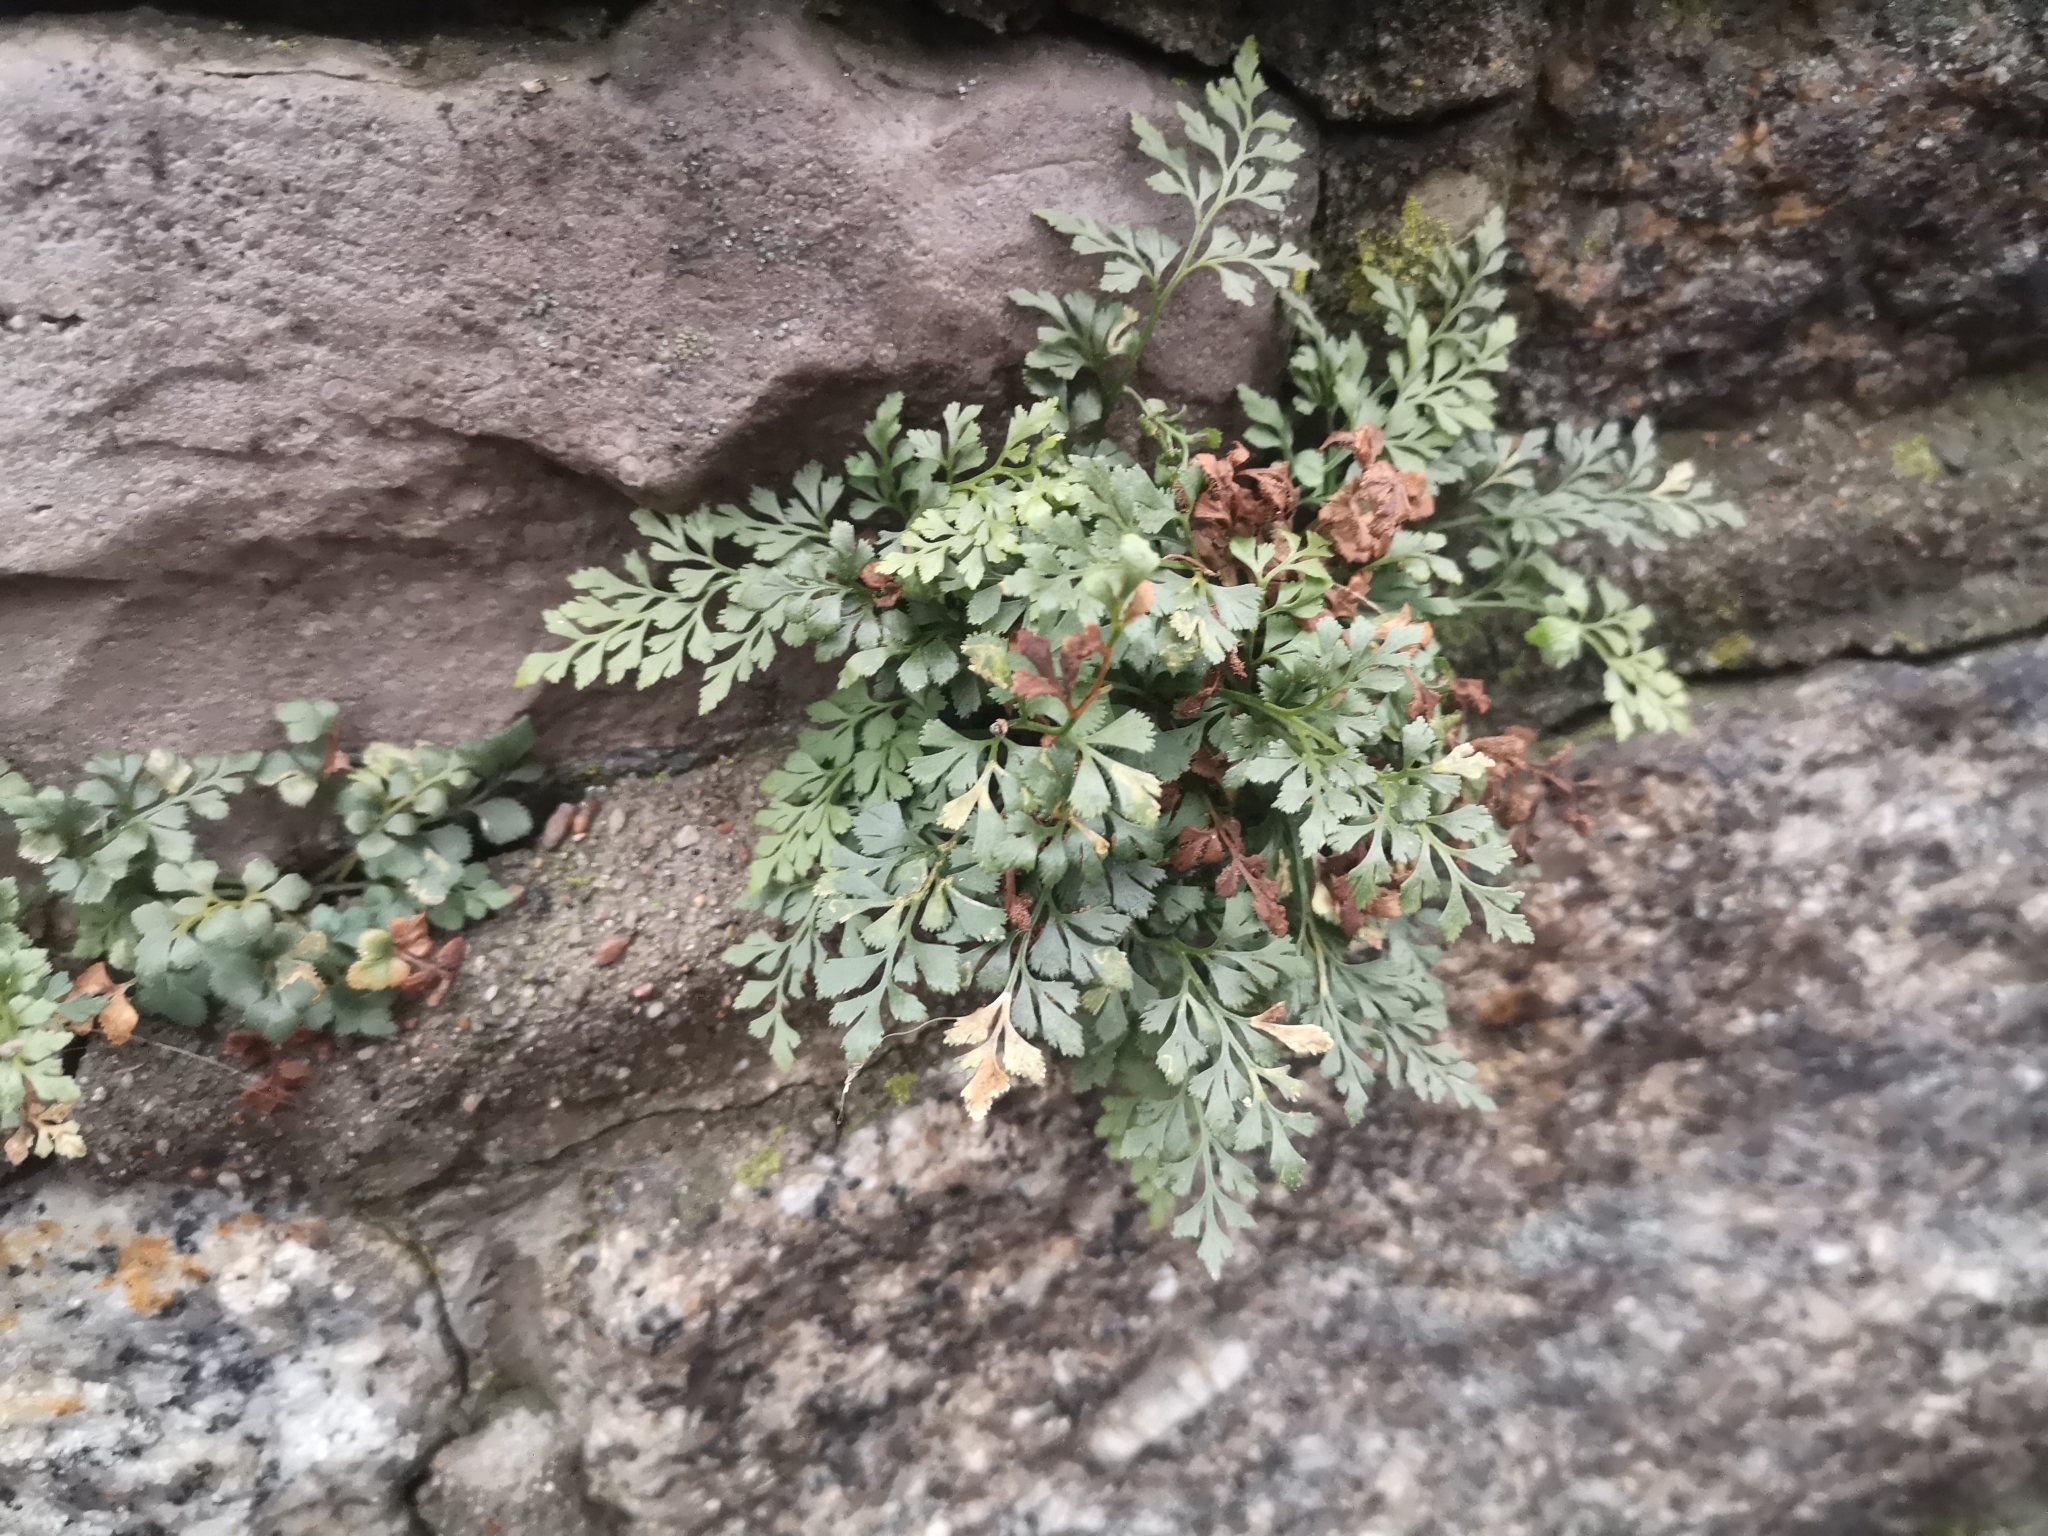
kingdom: Plantae
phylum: Tracheophyta
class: Polypodiopsida
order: Polypodiales
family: Aspleniaceae
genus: Asplenium
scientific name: Asplenium ruta-muraria
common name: Wall-rue
